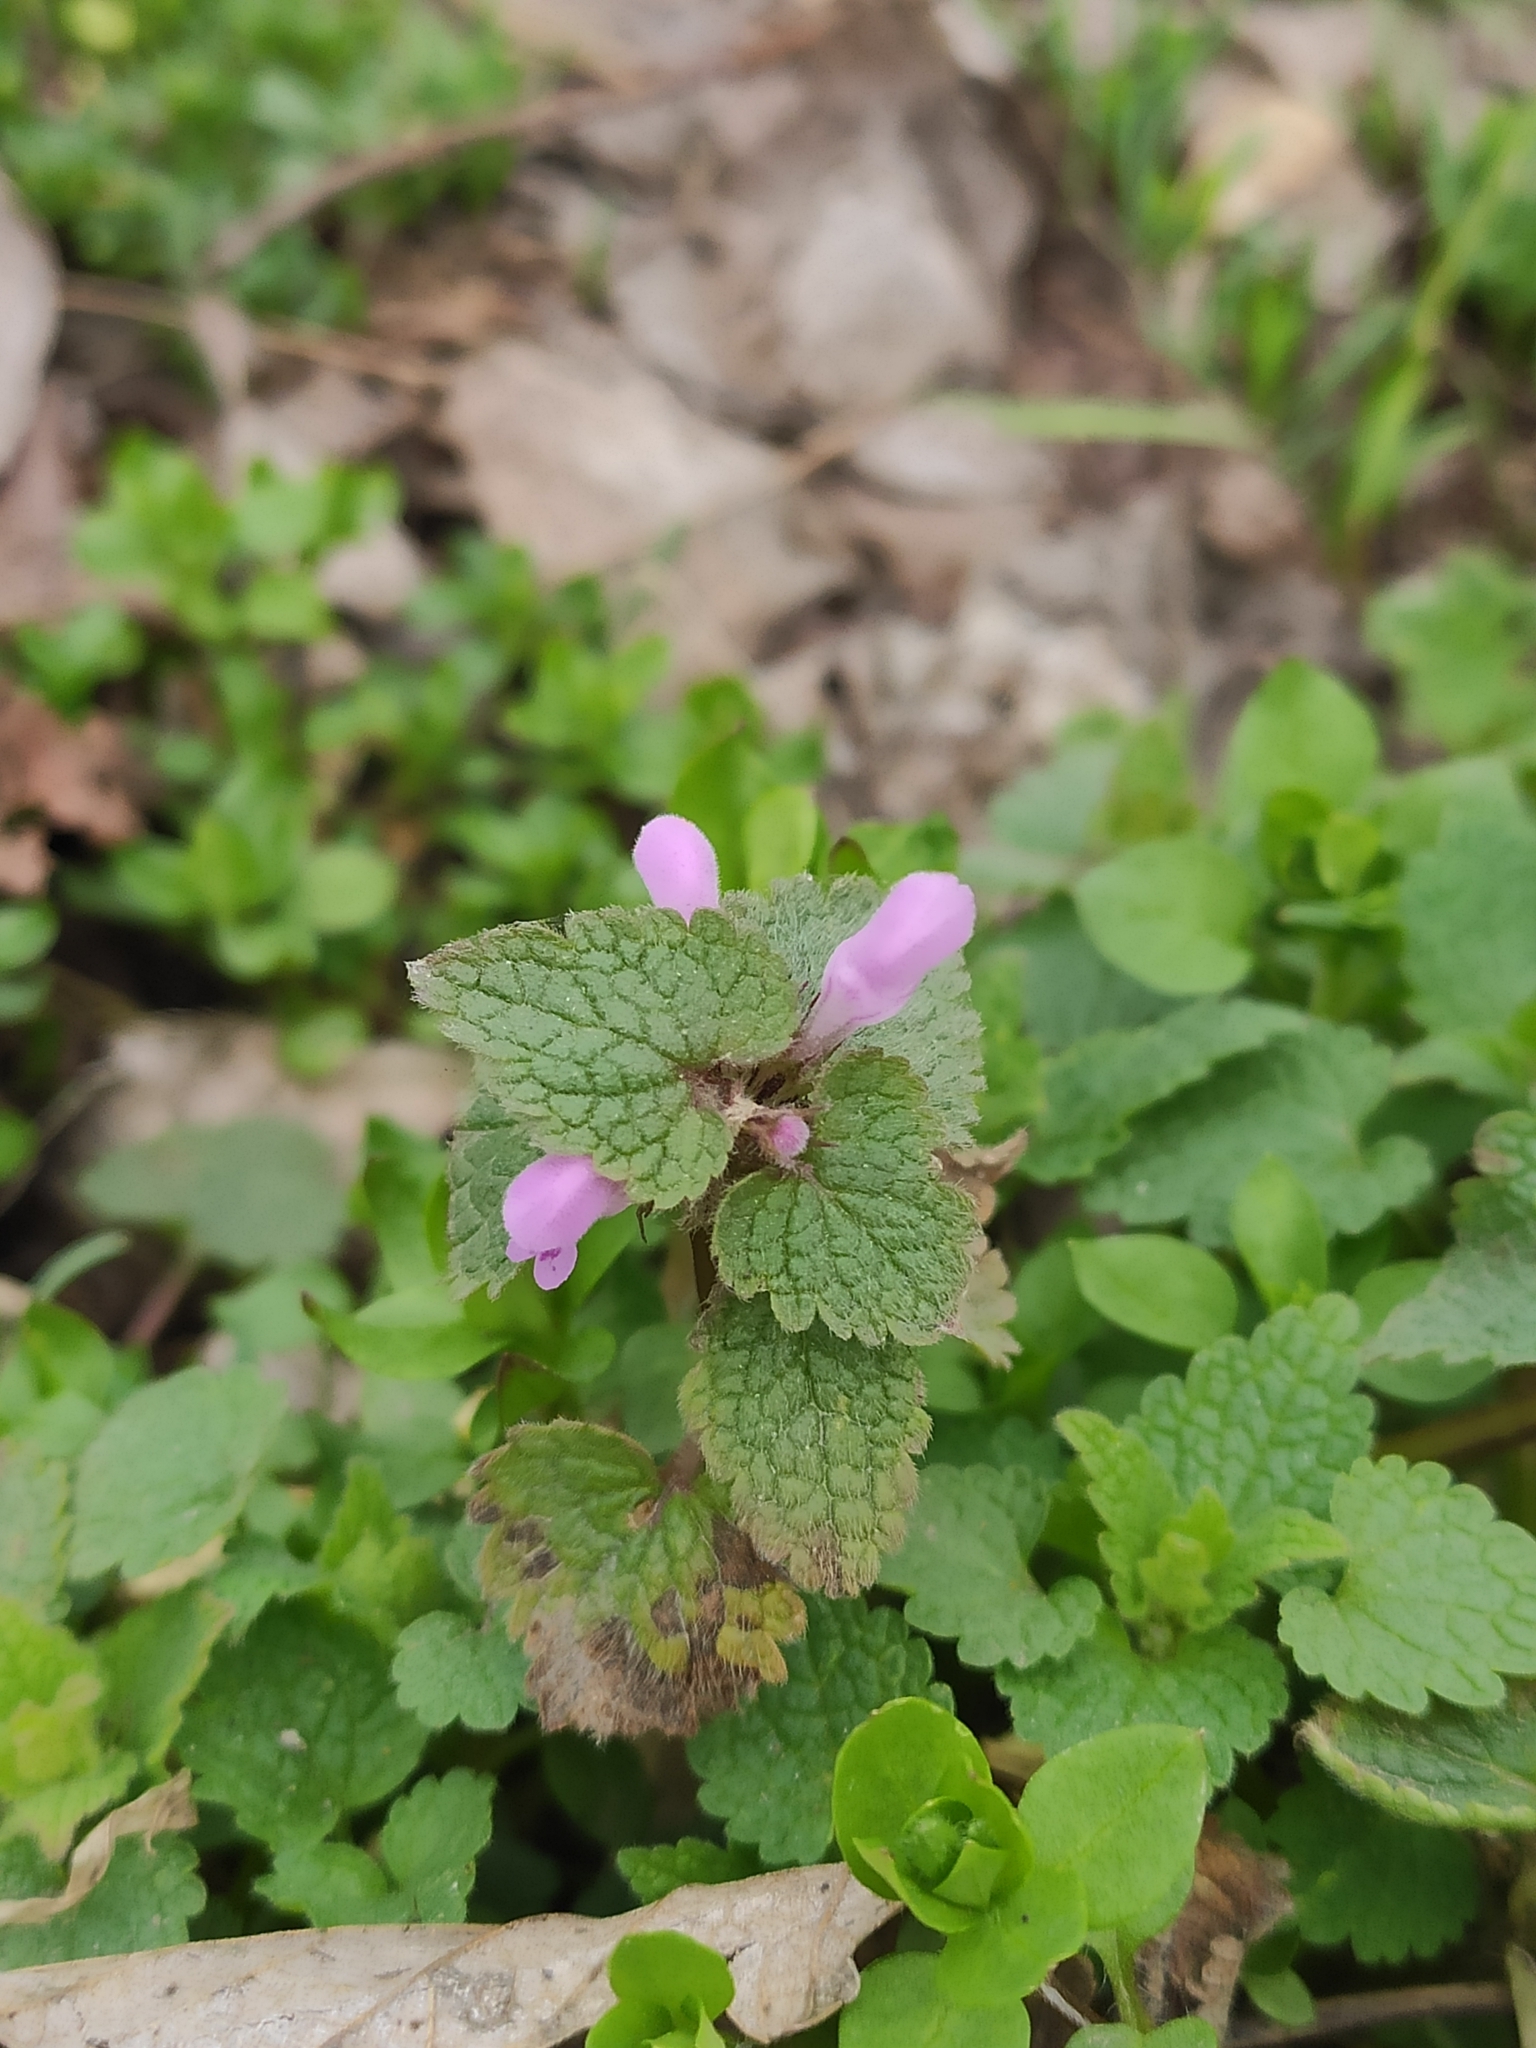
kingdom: Plantae
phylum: Tracheophyta
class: Magnoliopsida
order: Lamiales
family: Lamiaceae
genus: Lamium
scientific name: Lamium purpureum
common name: Red dead-nettle
